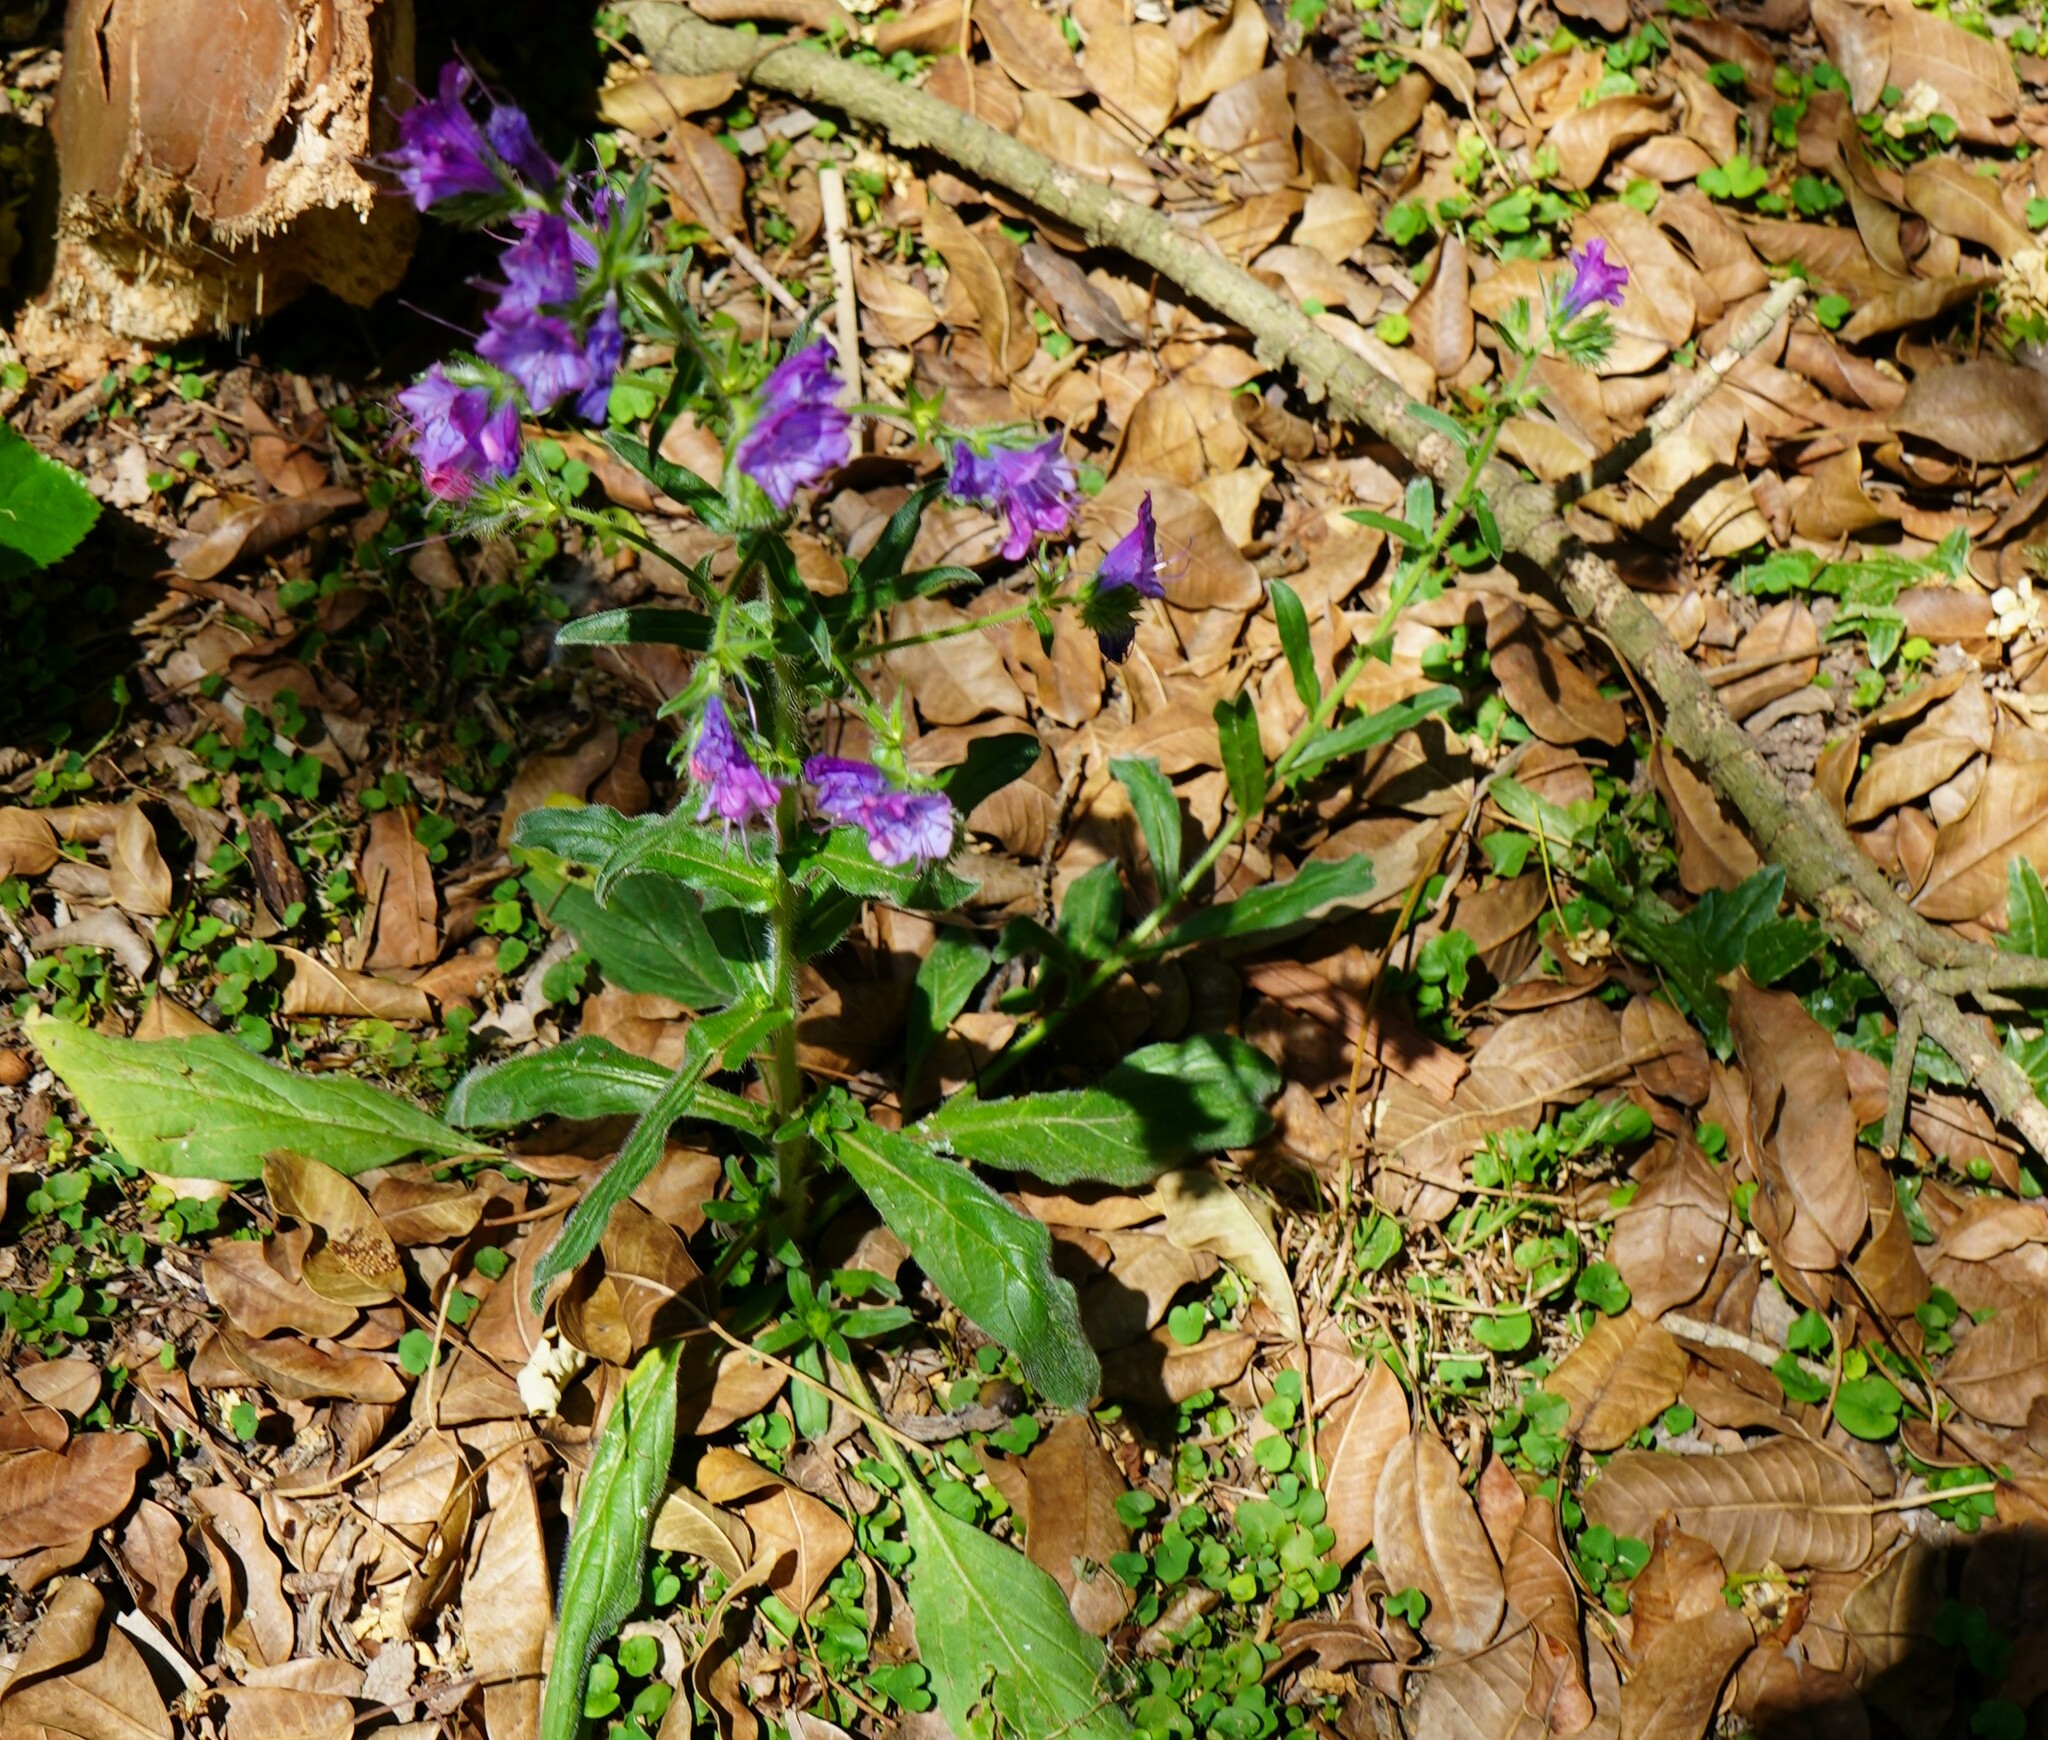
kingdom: Plantae
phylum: Tracheophyta
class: Magnoliopsida
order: Boraginales
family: Boraginaceae
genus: Echium
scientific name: Echium plantagineum
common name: Purple viper's-bugloss
